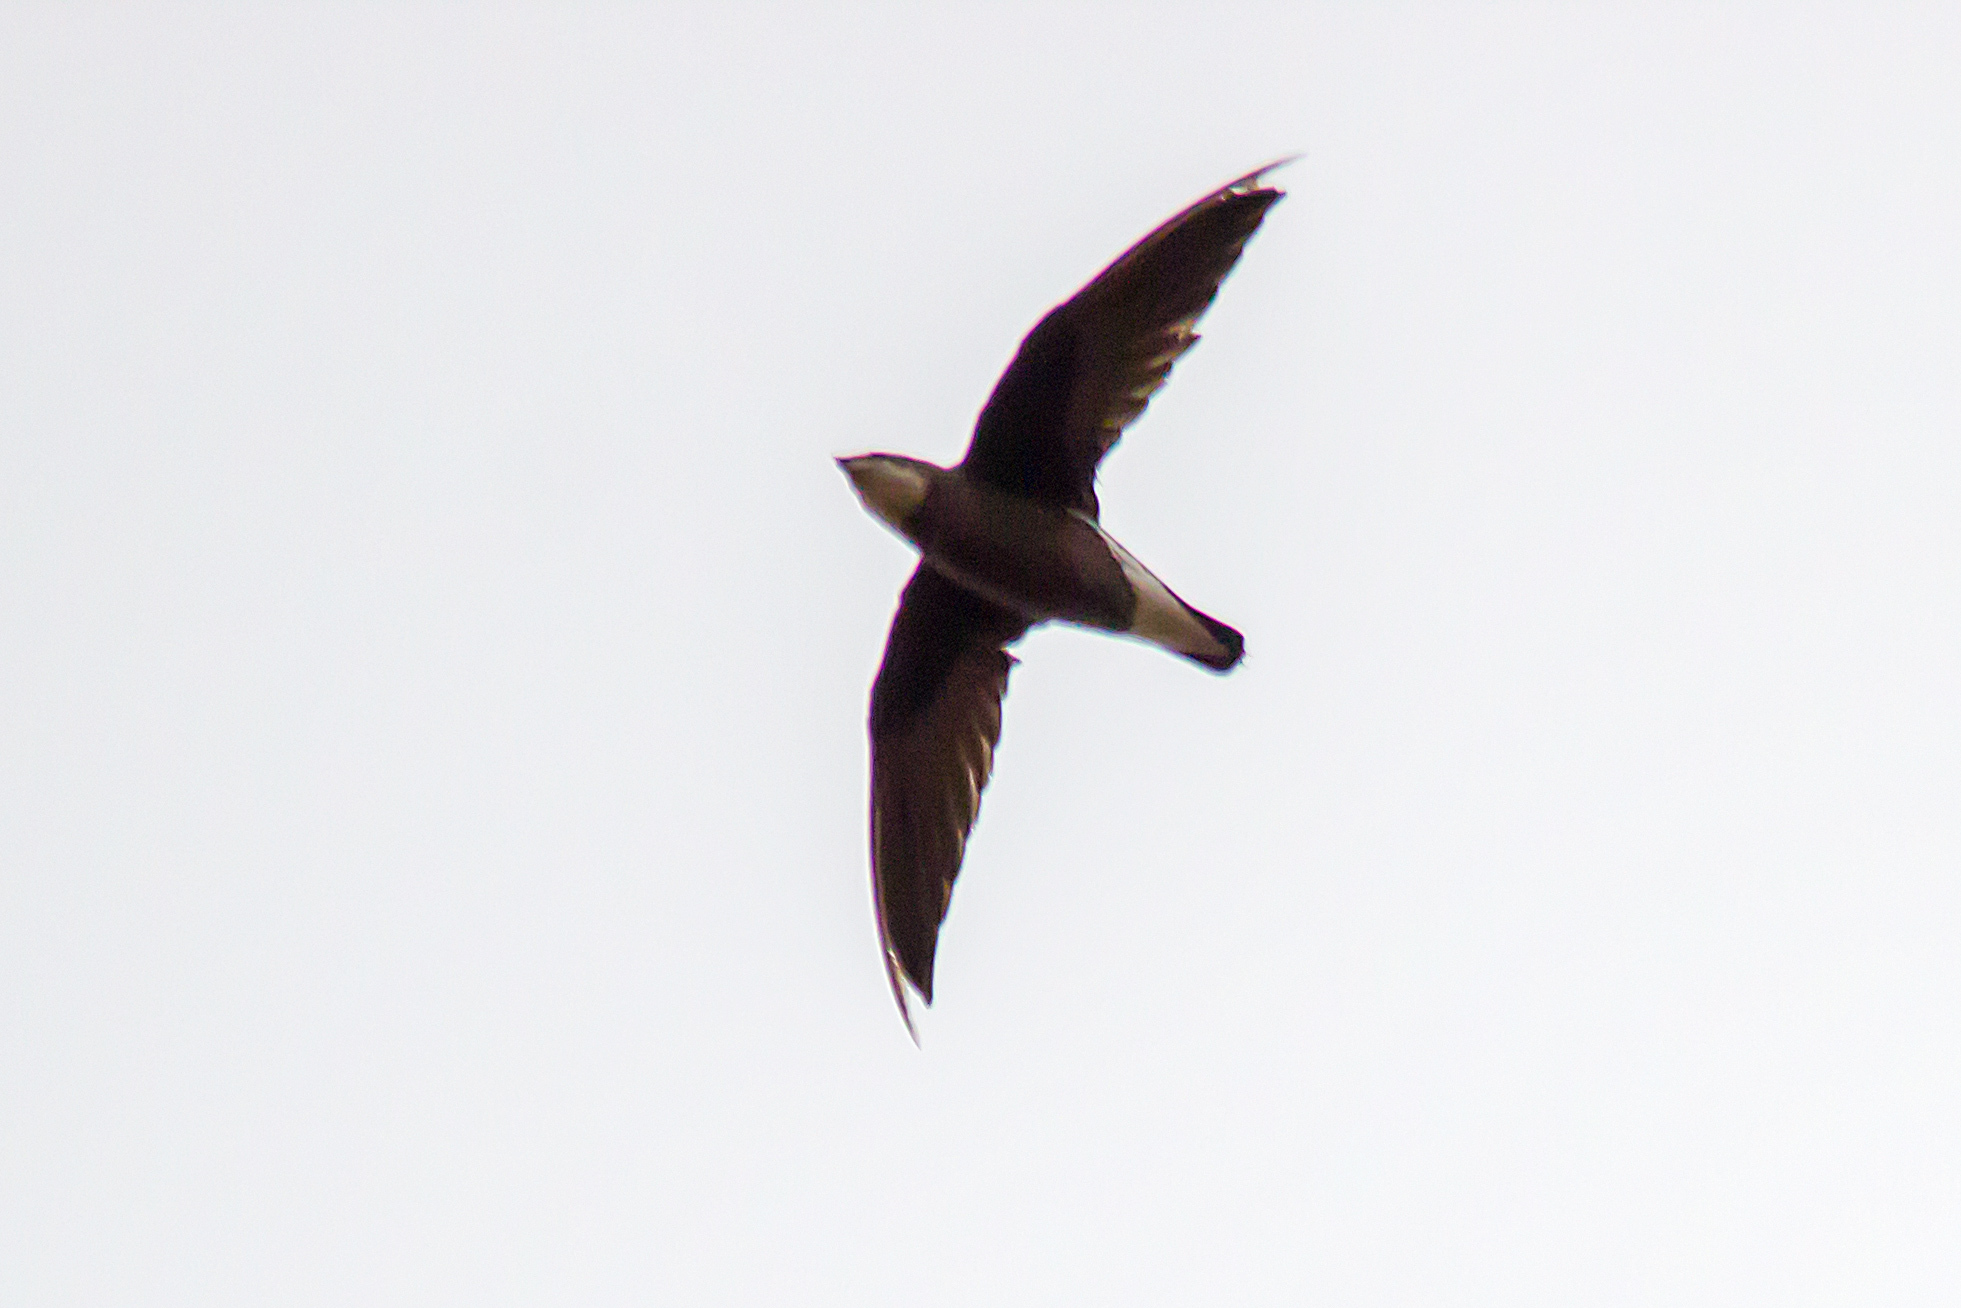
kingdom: Animalia
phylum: Chordata
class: Aves
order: Apodiformes
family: Apodidae
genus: Hirundapus
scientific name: Hirundapus caudacutus
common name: White-throated needletail
